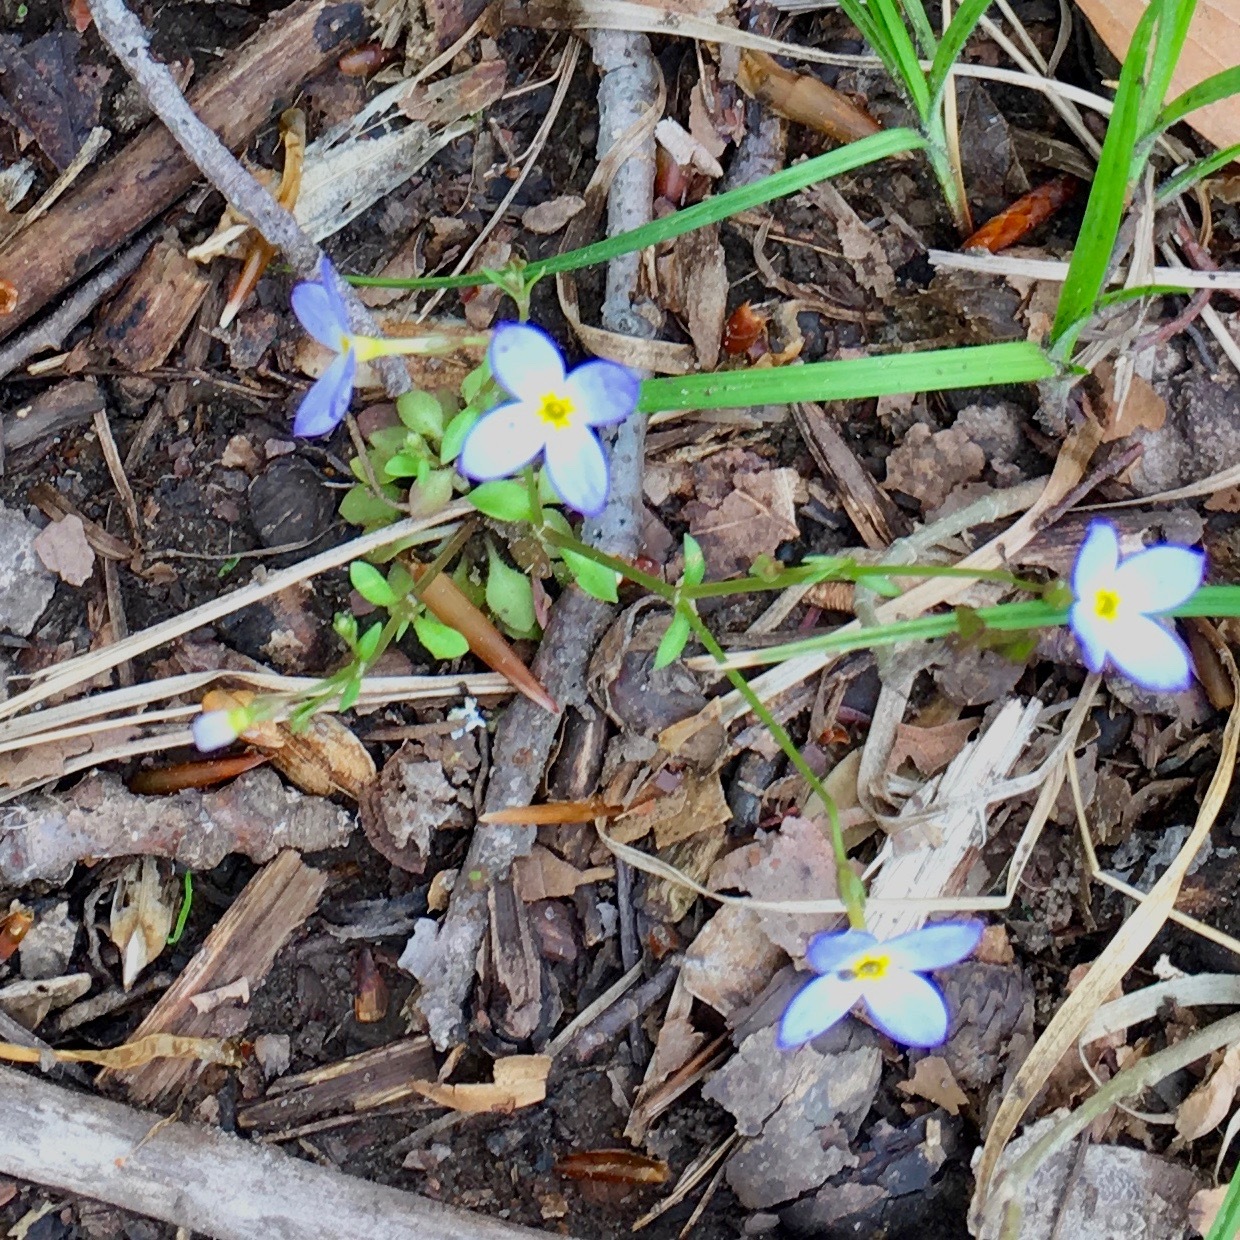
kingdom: Plantae
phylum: Tracheophyta
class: Magnoliopsida
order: Gentianales
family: Rubiaceae
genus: Houstonia
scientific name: Houstonia caerulea
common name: Bluets
